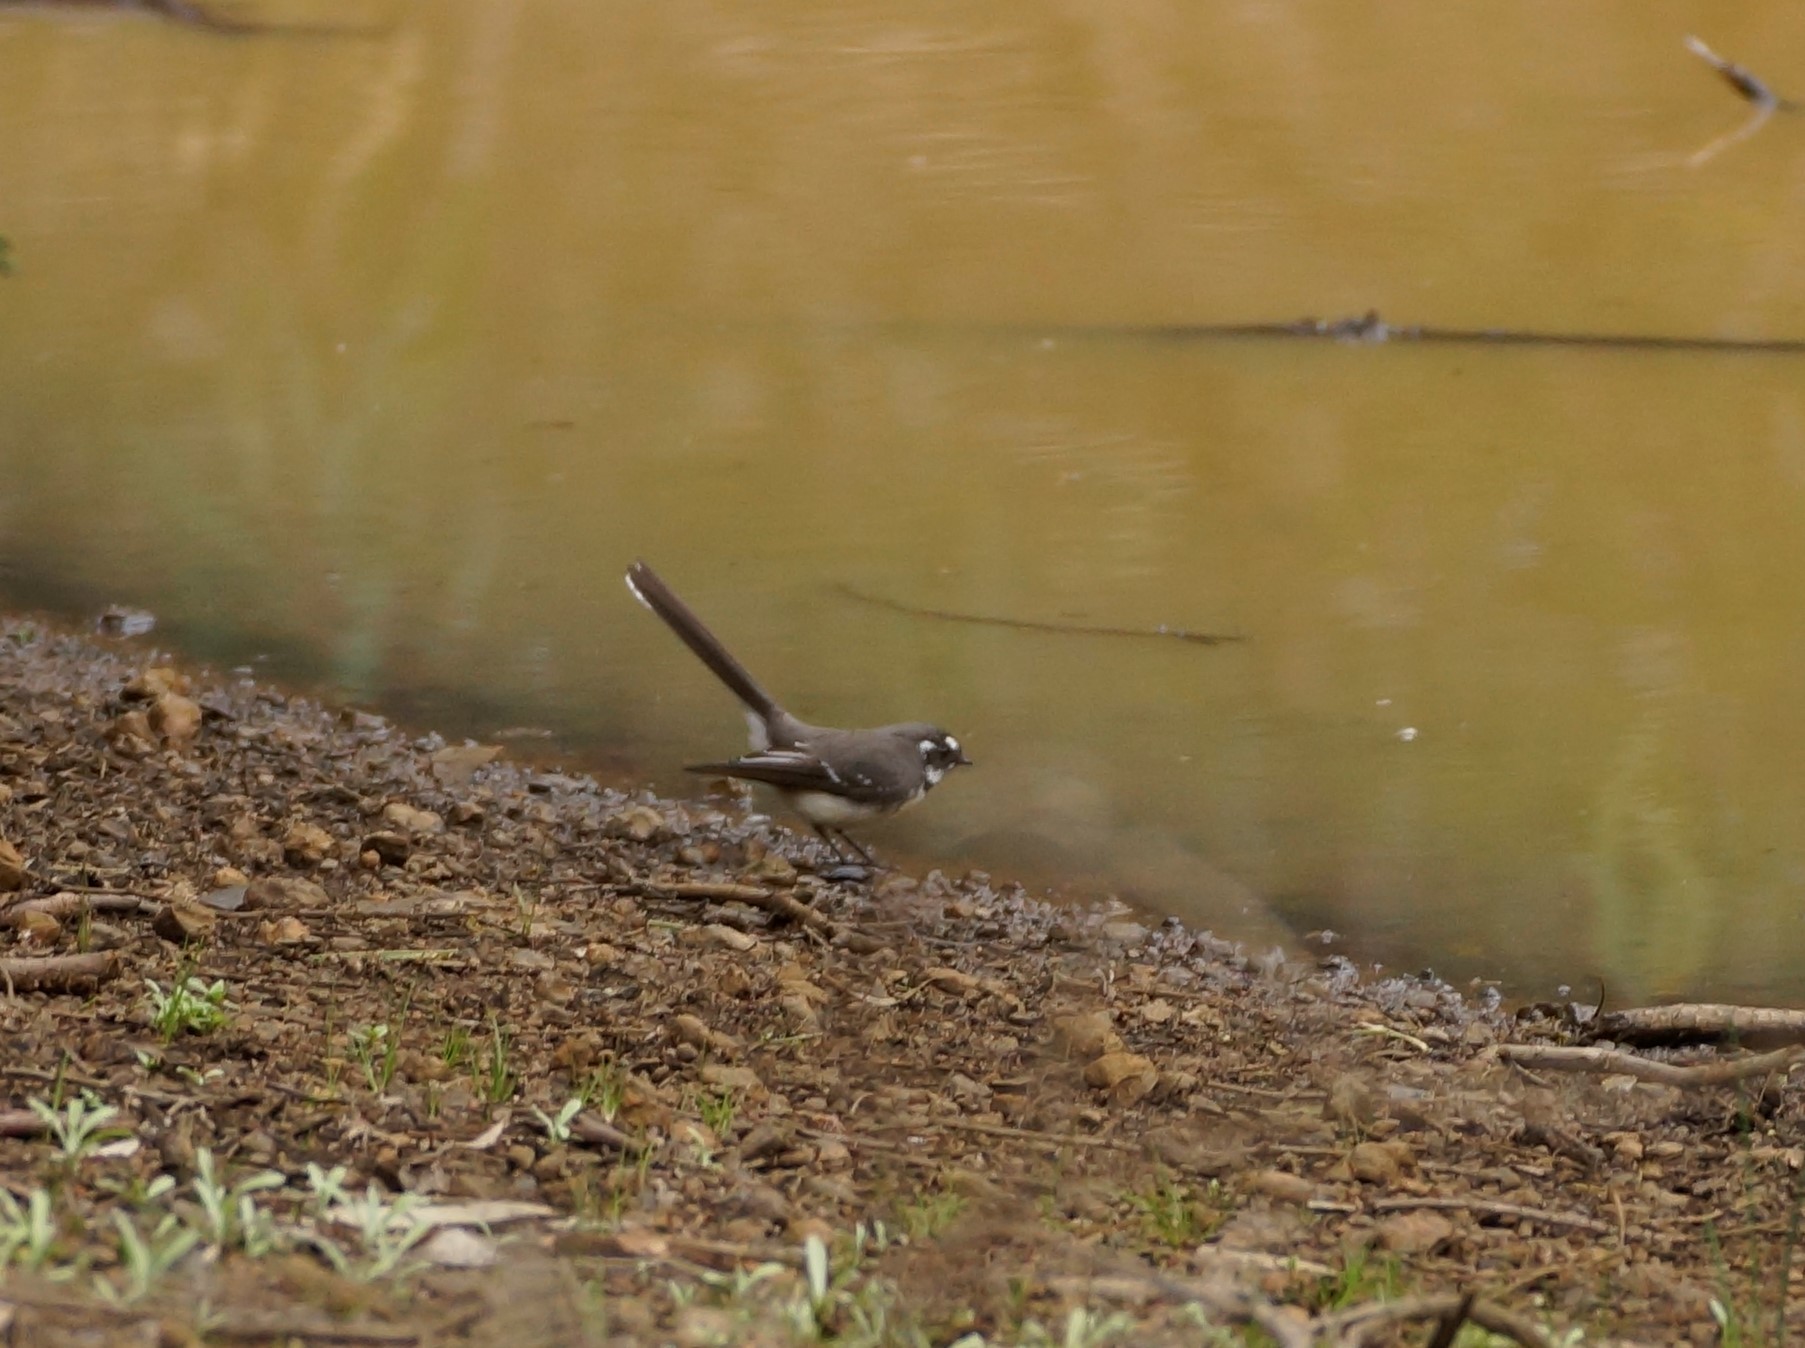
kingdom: Animalia
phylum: Chordata
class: Aves
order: Passeriformes
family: Rhipiduridae
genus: Rhipidura
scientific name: Rhipidura albiscapa
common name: Grey fantail
